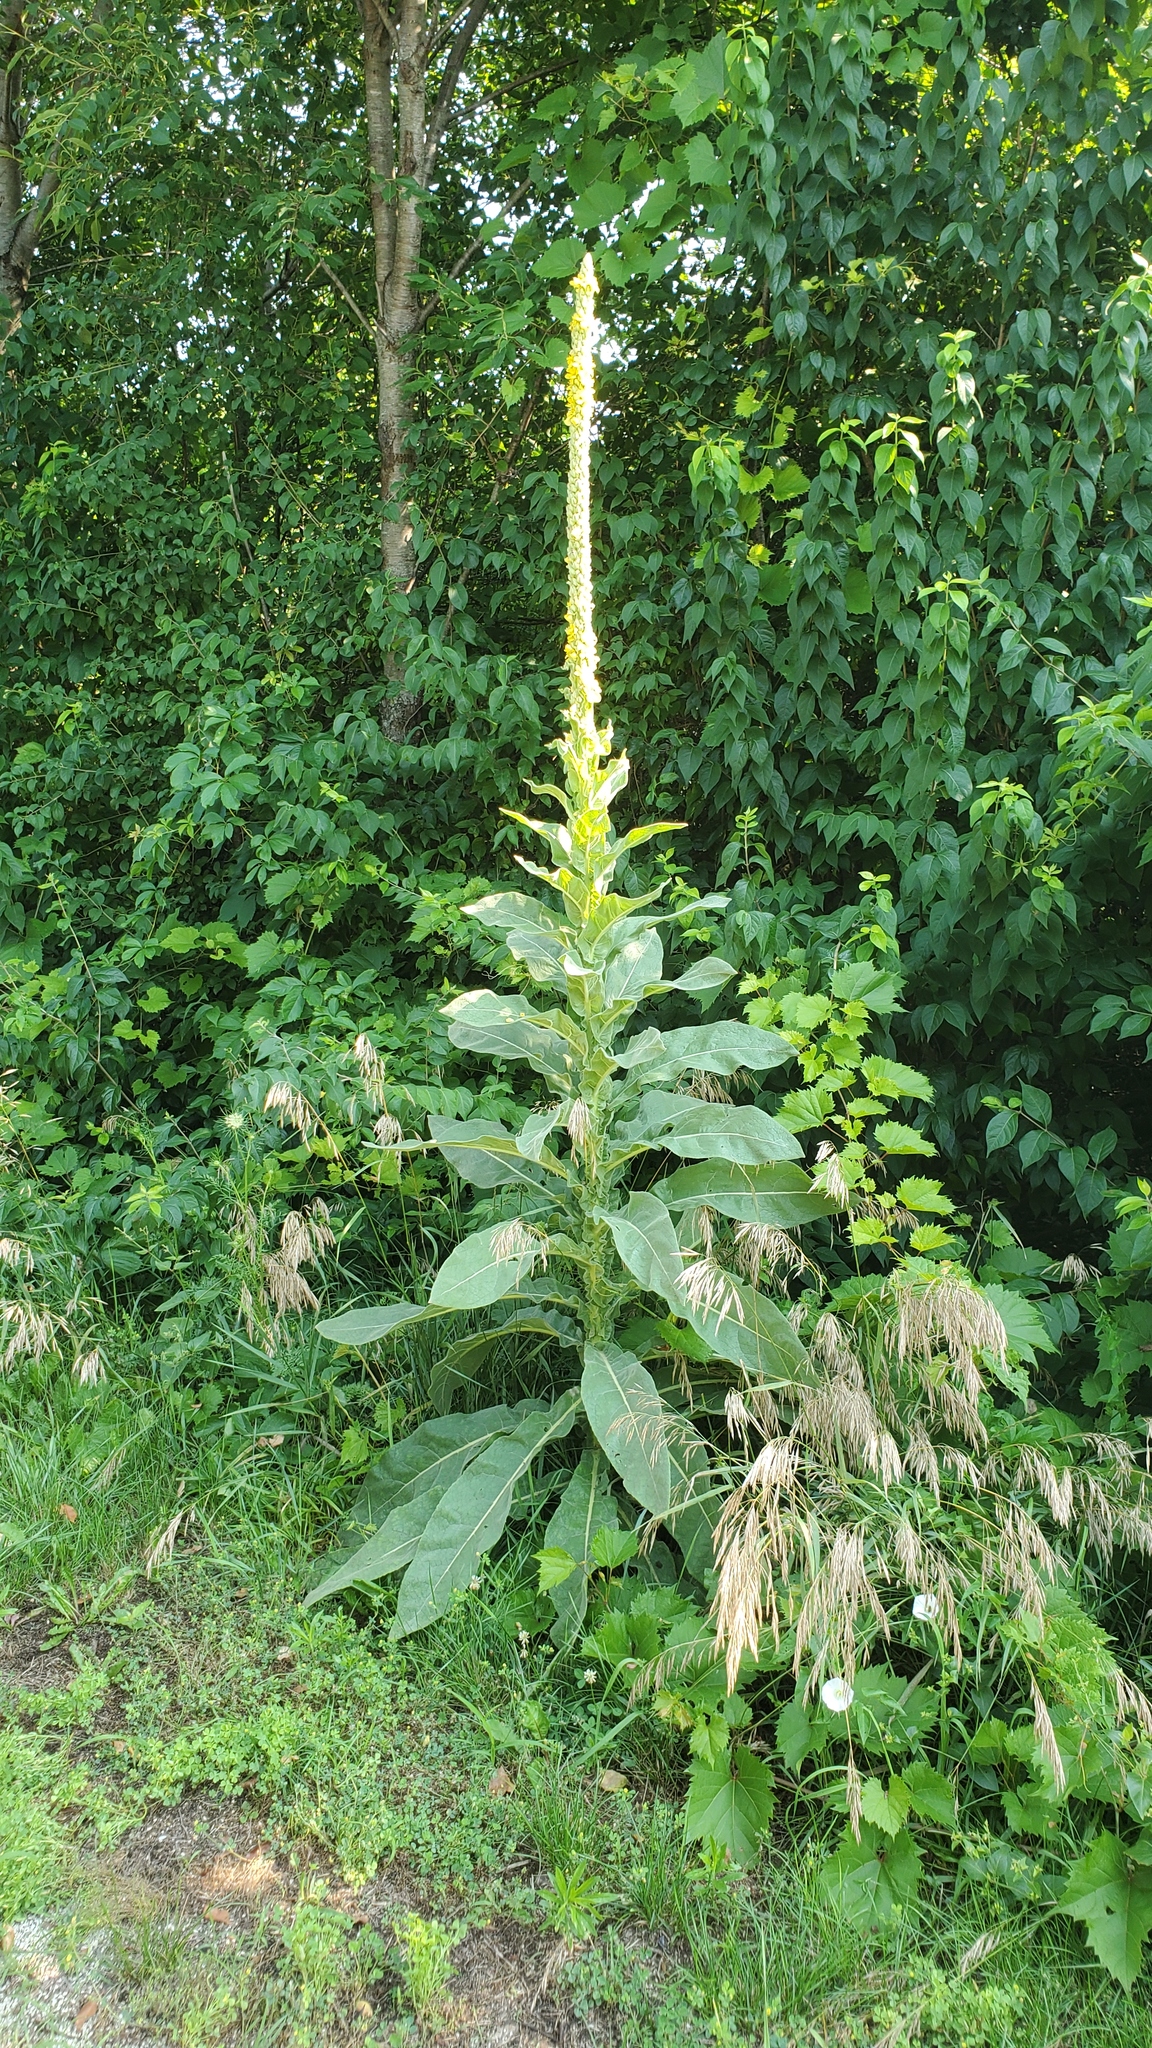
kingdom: Plantae
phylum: Tracheophyta
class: Magnoliopsida
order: Lamiales
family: Scrophulariaceae
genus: Verbascum
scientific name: Verbascum thapsus
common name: Common mullein
